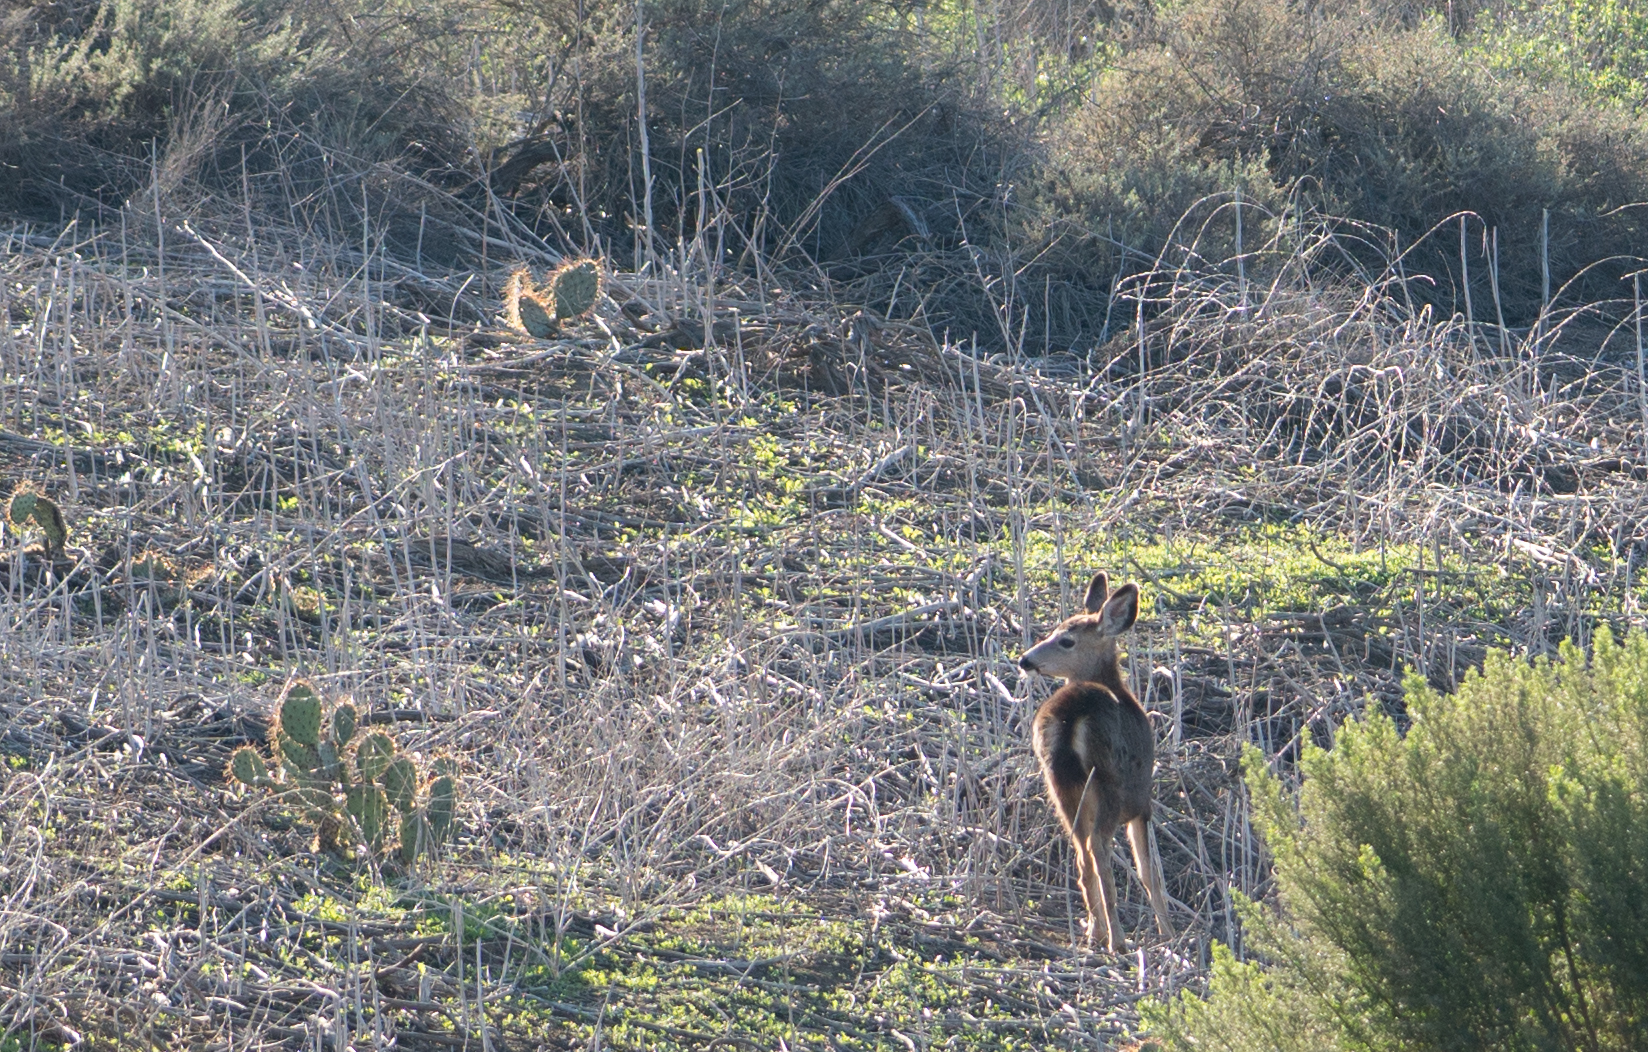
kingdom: Animalia
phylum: Chordata
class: Mammalia
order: Artiodactyla
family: Cervidae
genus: Odocoileus
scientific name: Odocoileus hemionus
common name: Mule deer
